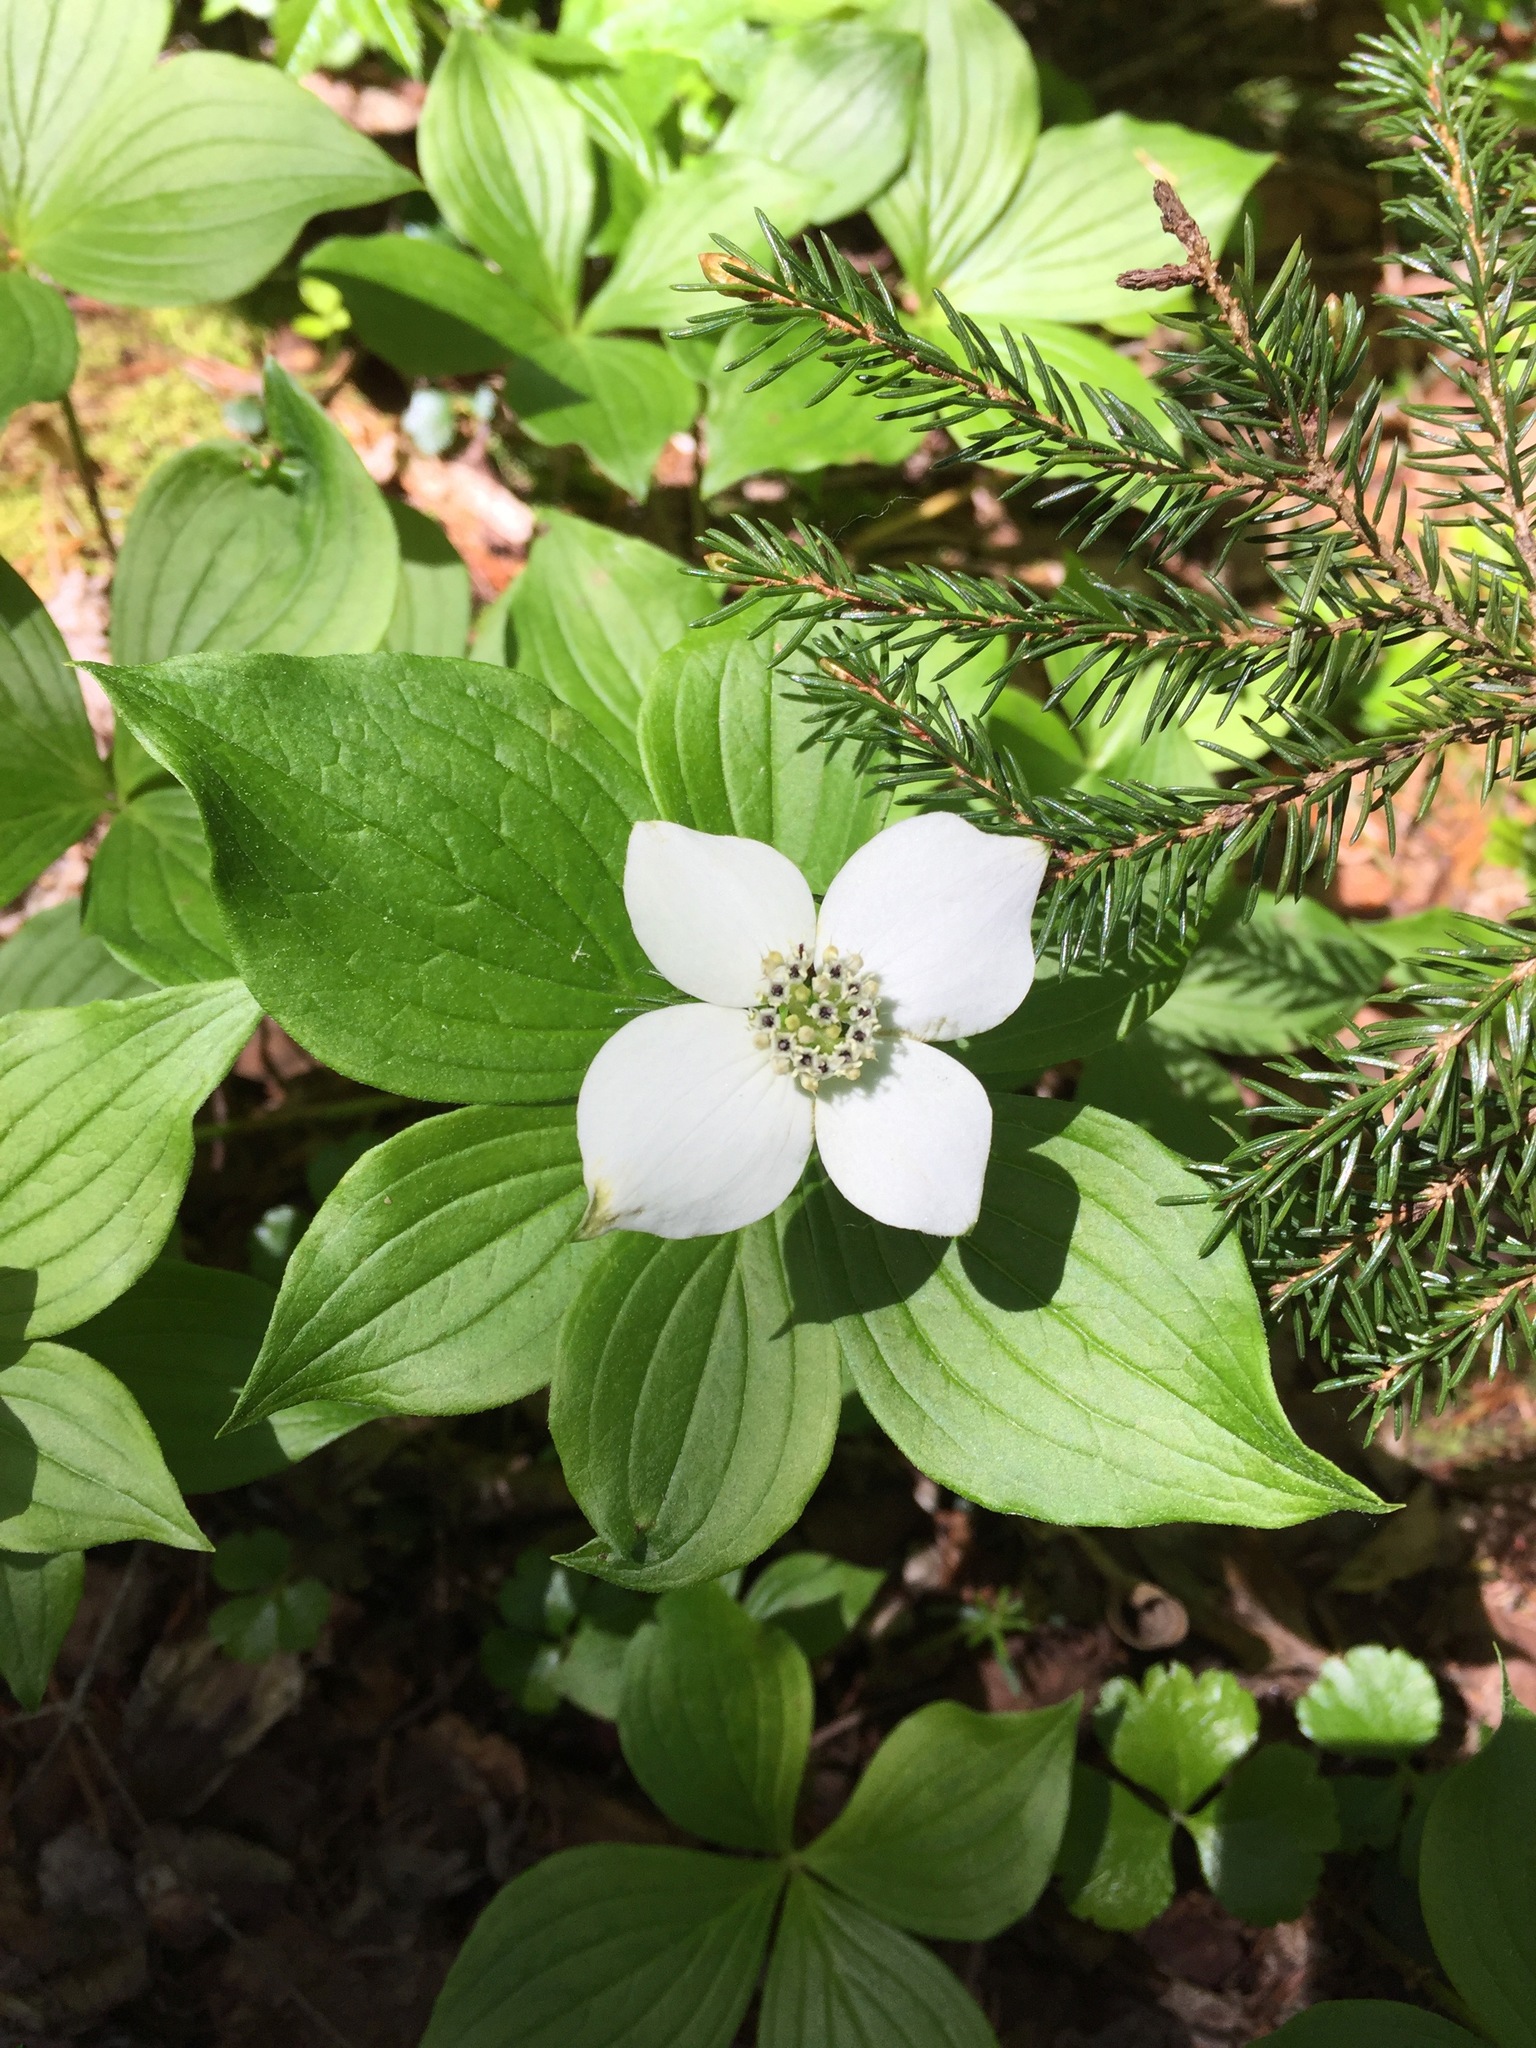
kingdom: Plantae
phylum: Tracheophyta
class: Magnoliopsida
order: Cornales
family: Cornaceae
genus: Cornus
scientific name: Cornus canadensis
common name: Creeping dogwood
